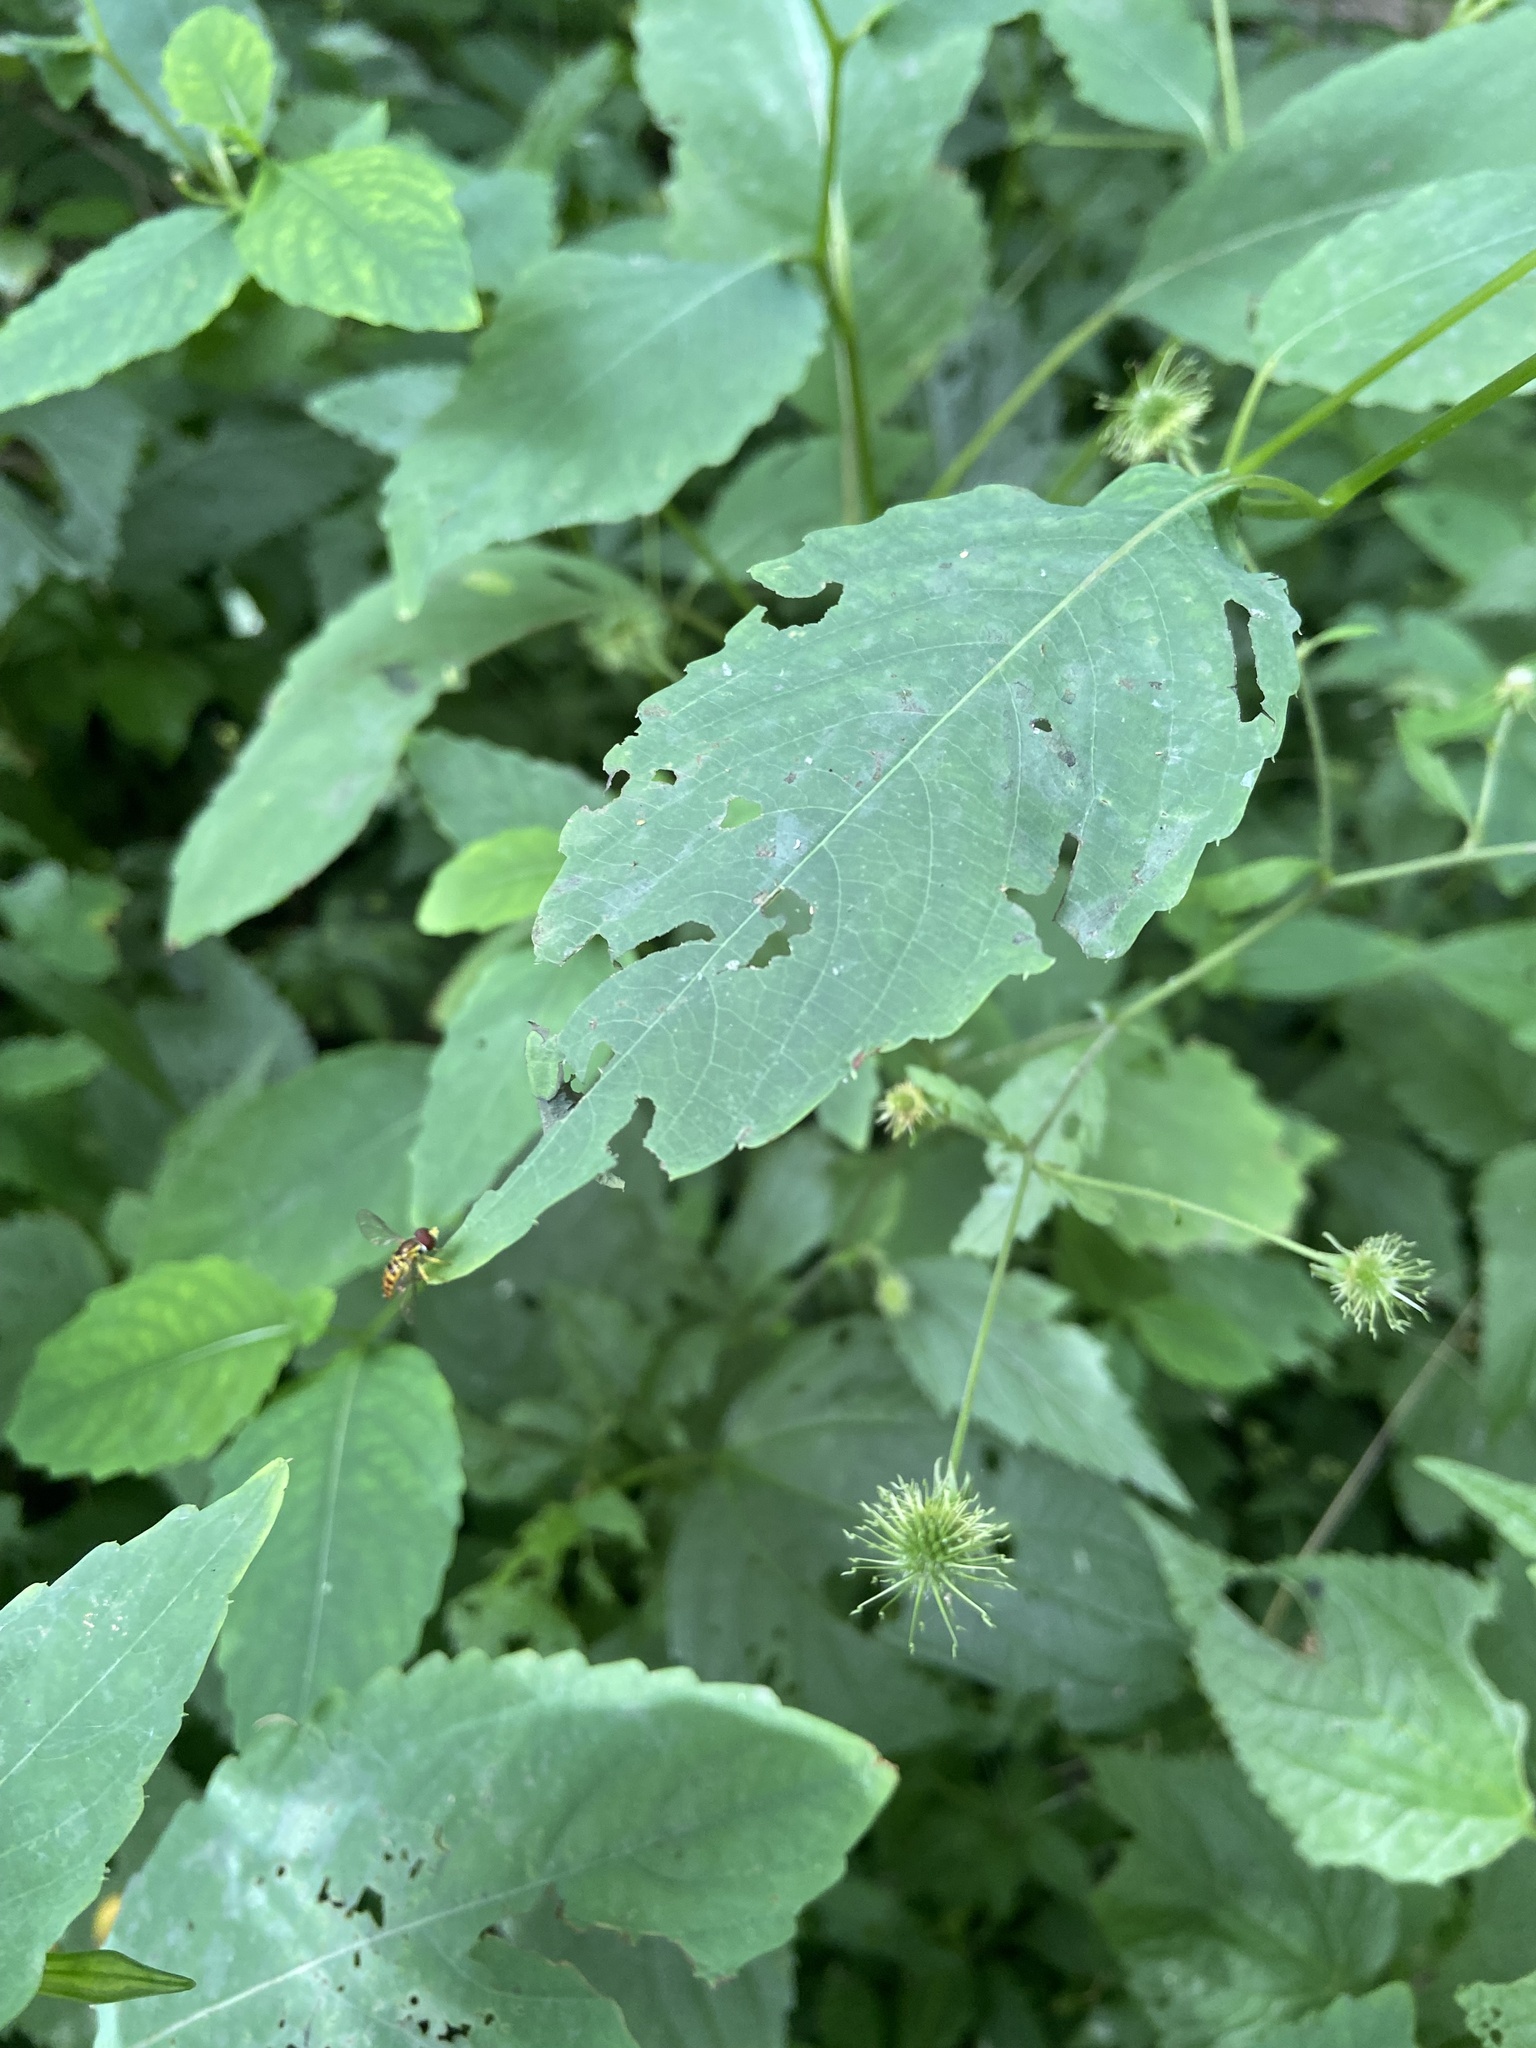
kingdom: Plantae
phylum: Tracheophyta
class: Magnoliopsida
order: Ericales
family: Balsaminaceae
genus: Impatiens
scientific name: Impatiens pallida
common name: Pale snapweed
